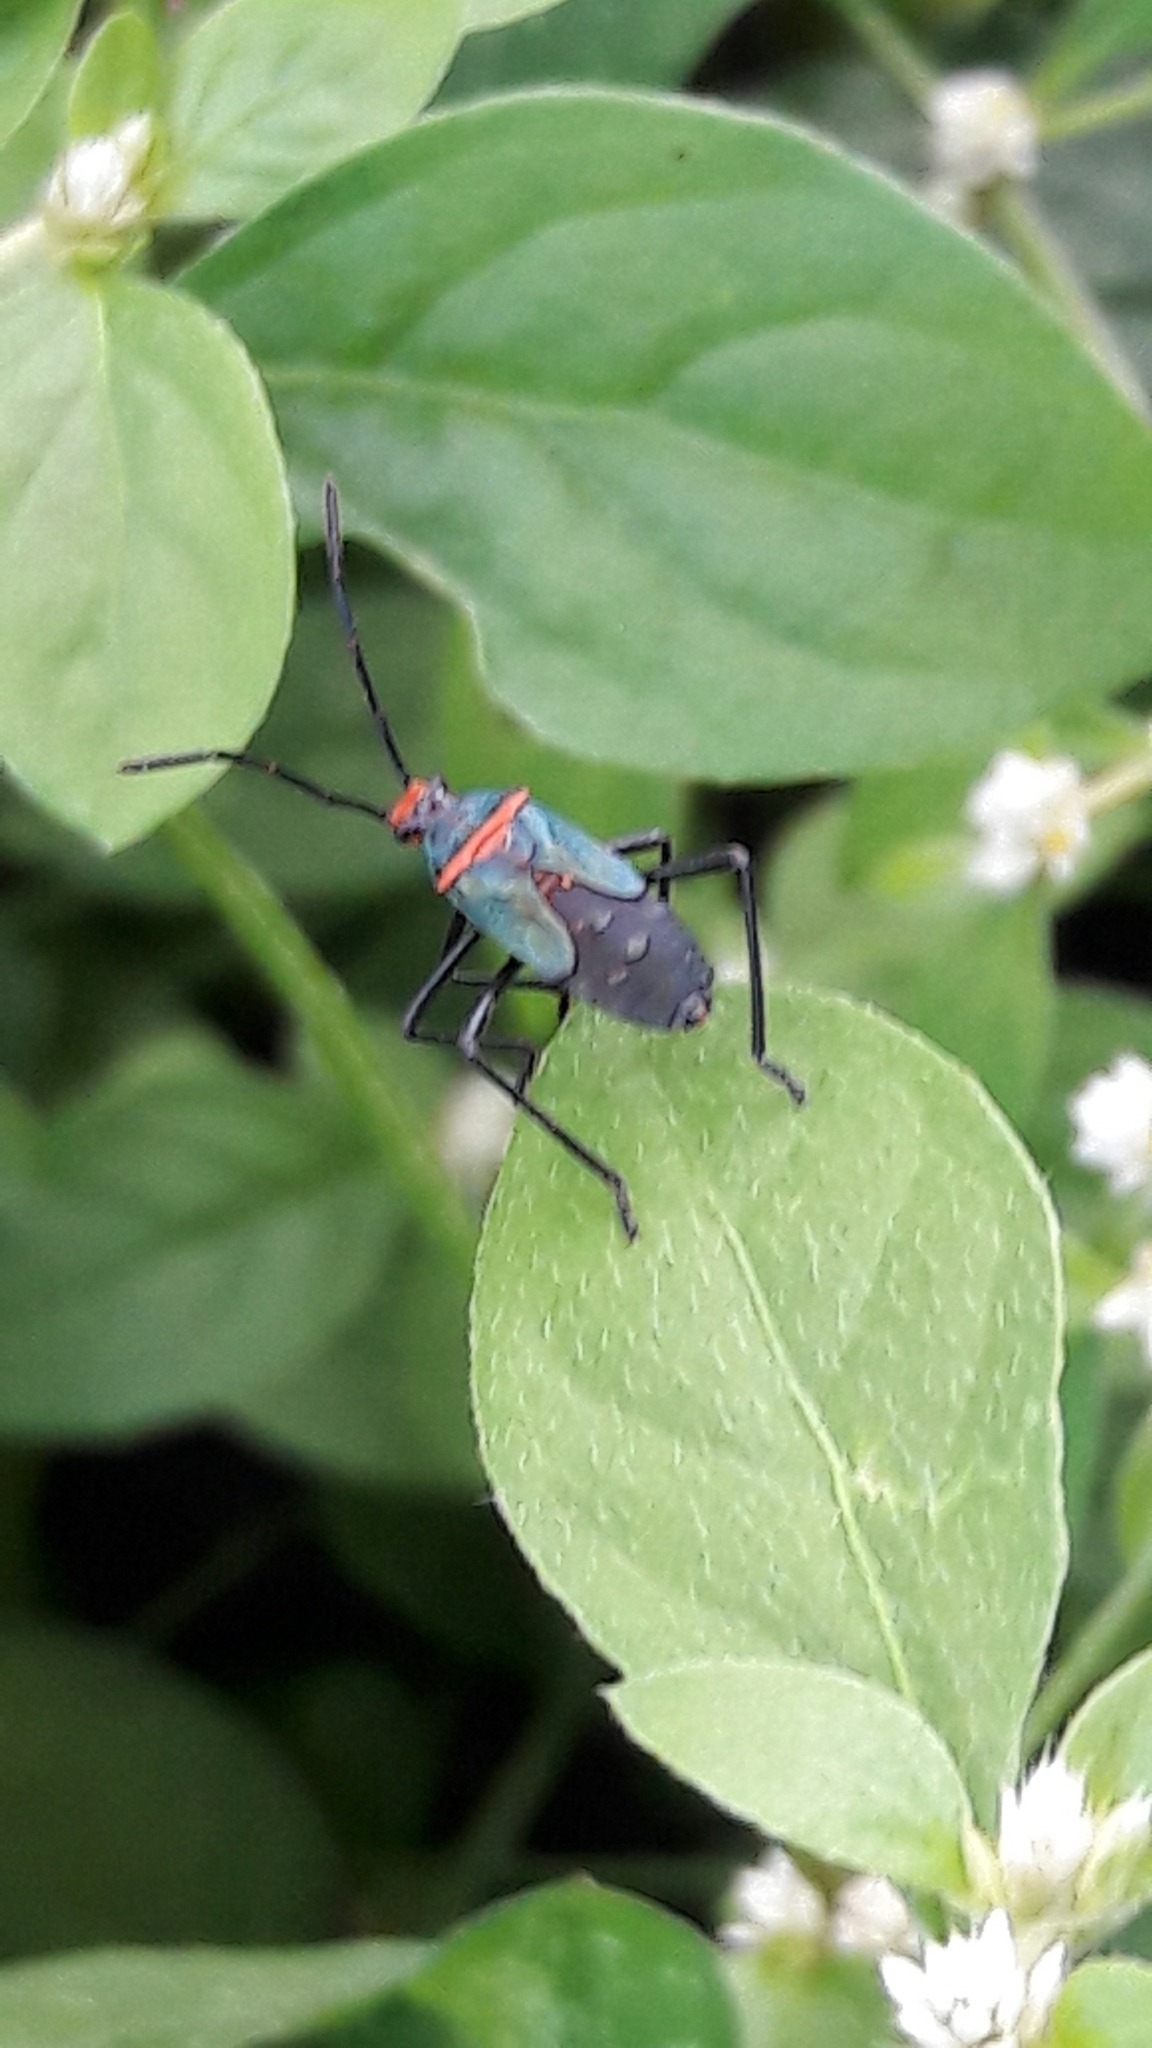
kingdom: Animalia
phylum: Arthropoda
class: Insecta
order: Hemiptera
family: Coreidae
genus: Sphictyrtus
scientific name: Sphictyrtus chrysis
